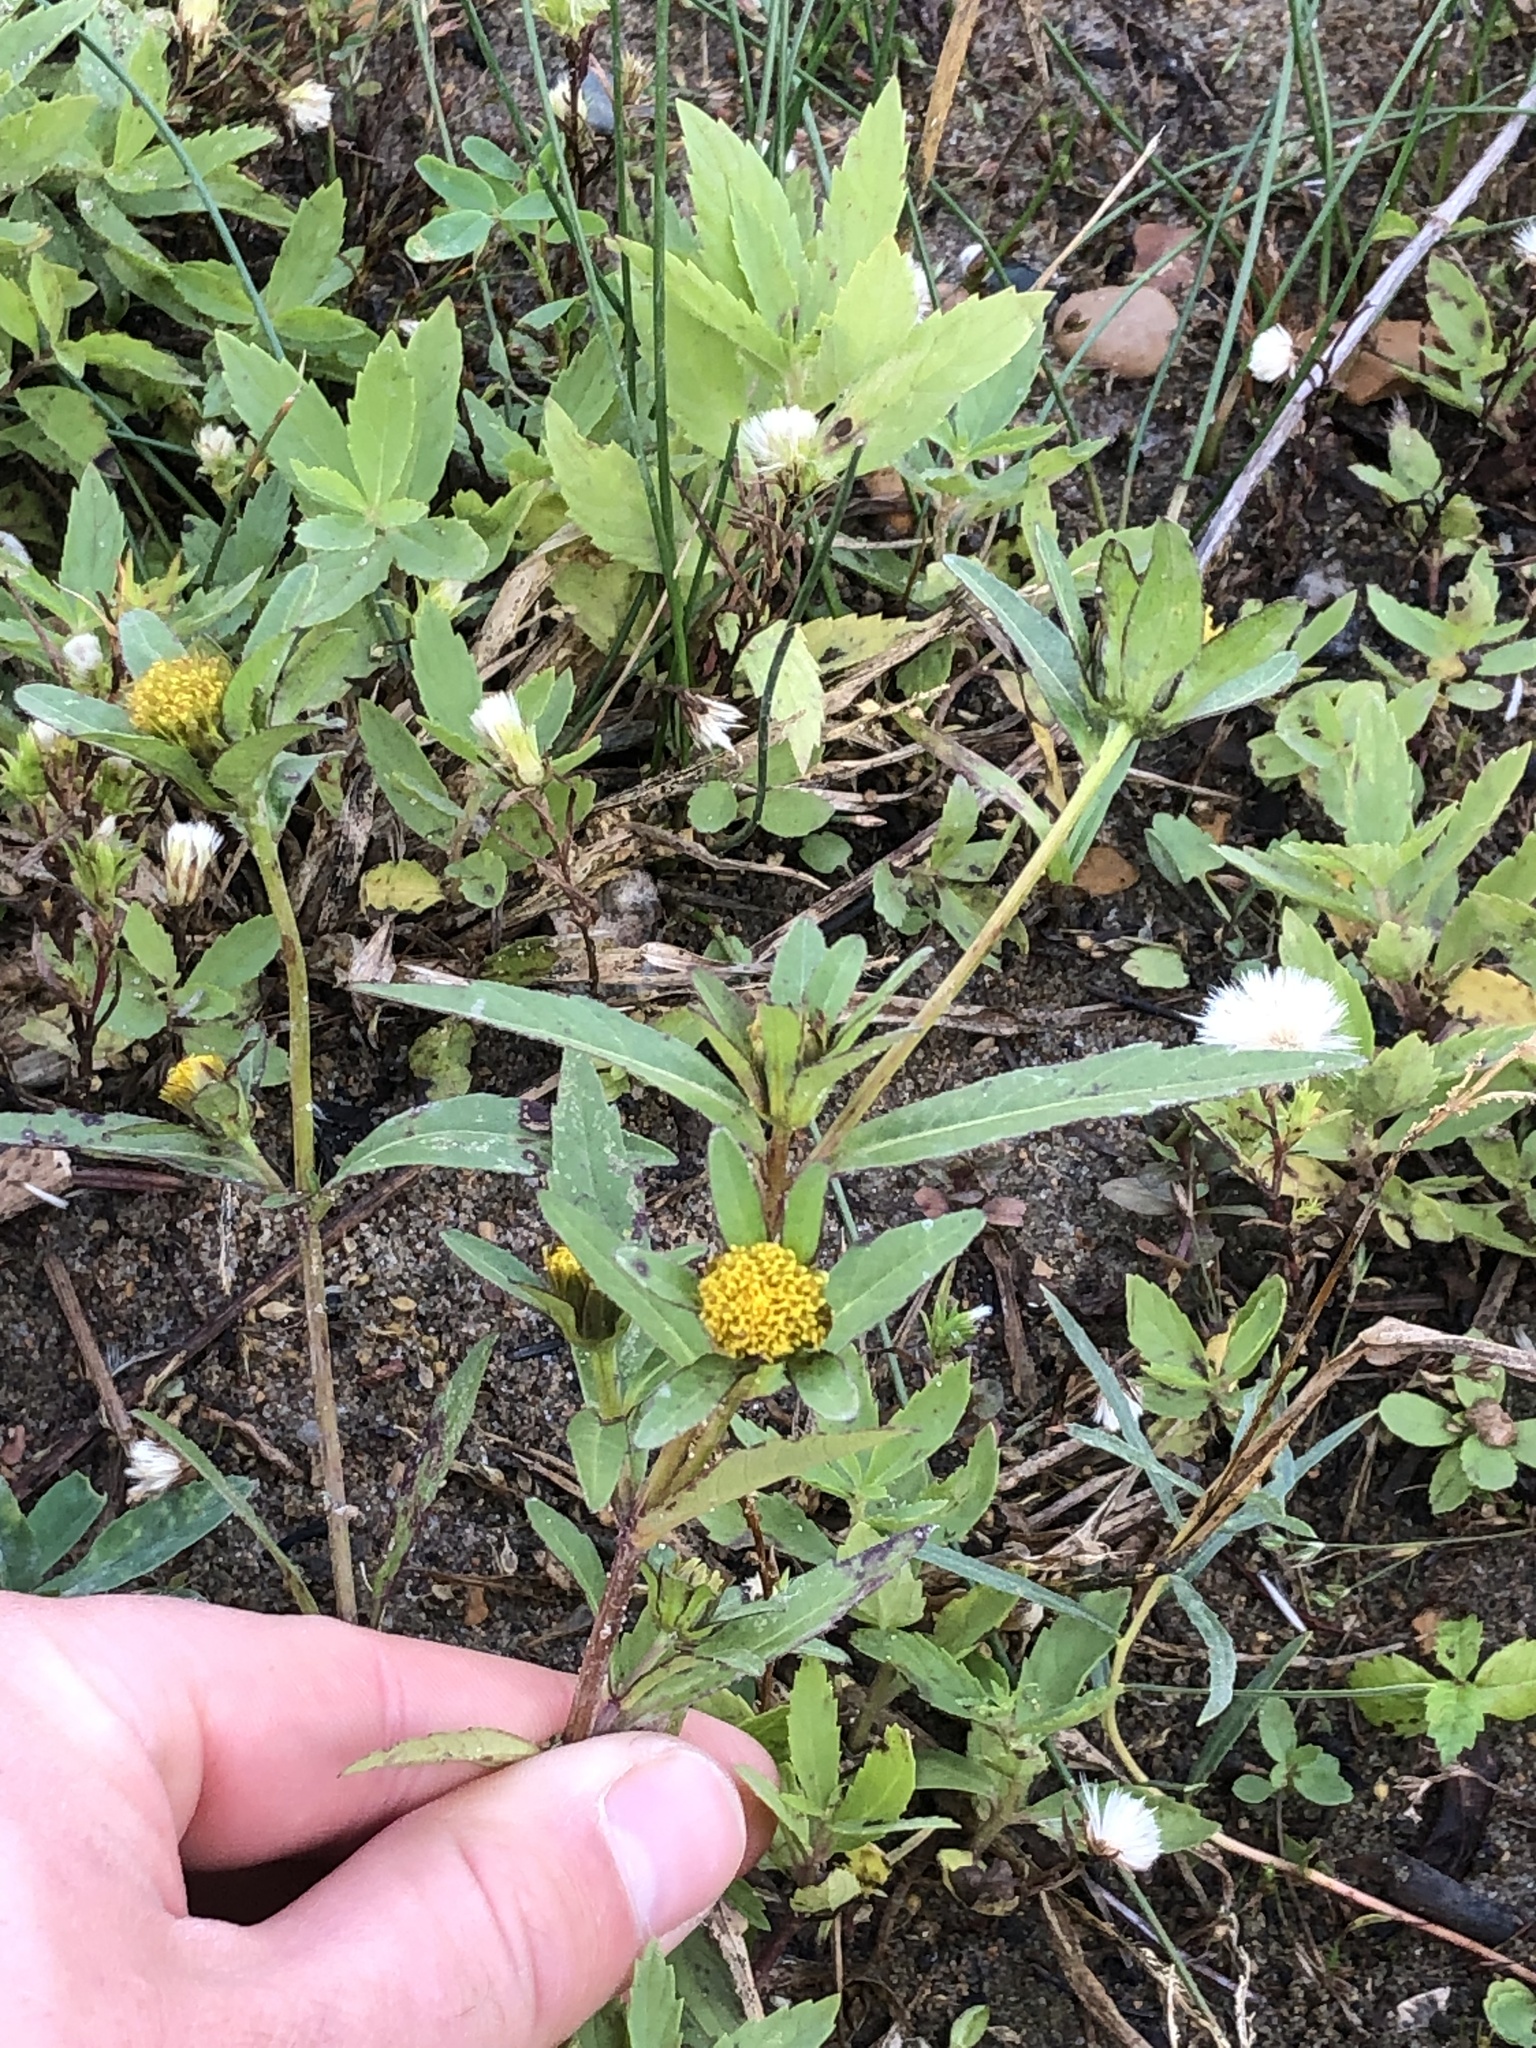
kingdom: Plantae
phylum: Tracheophyta
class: Magnoliopsida
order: Asterales
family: Asteraceae
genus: Bidens
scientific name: Bidens tripartita
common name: Trifid bur-marigold
